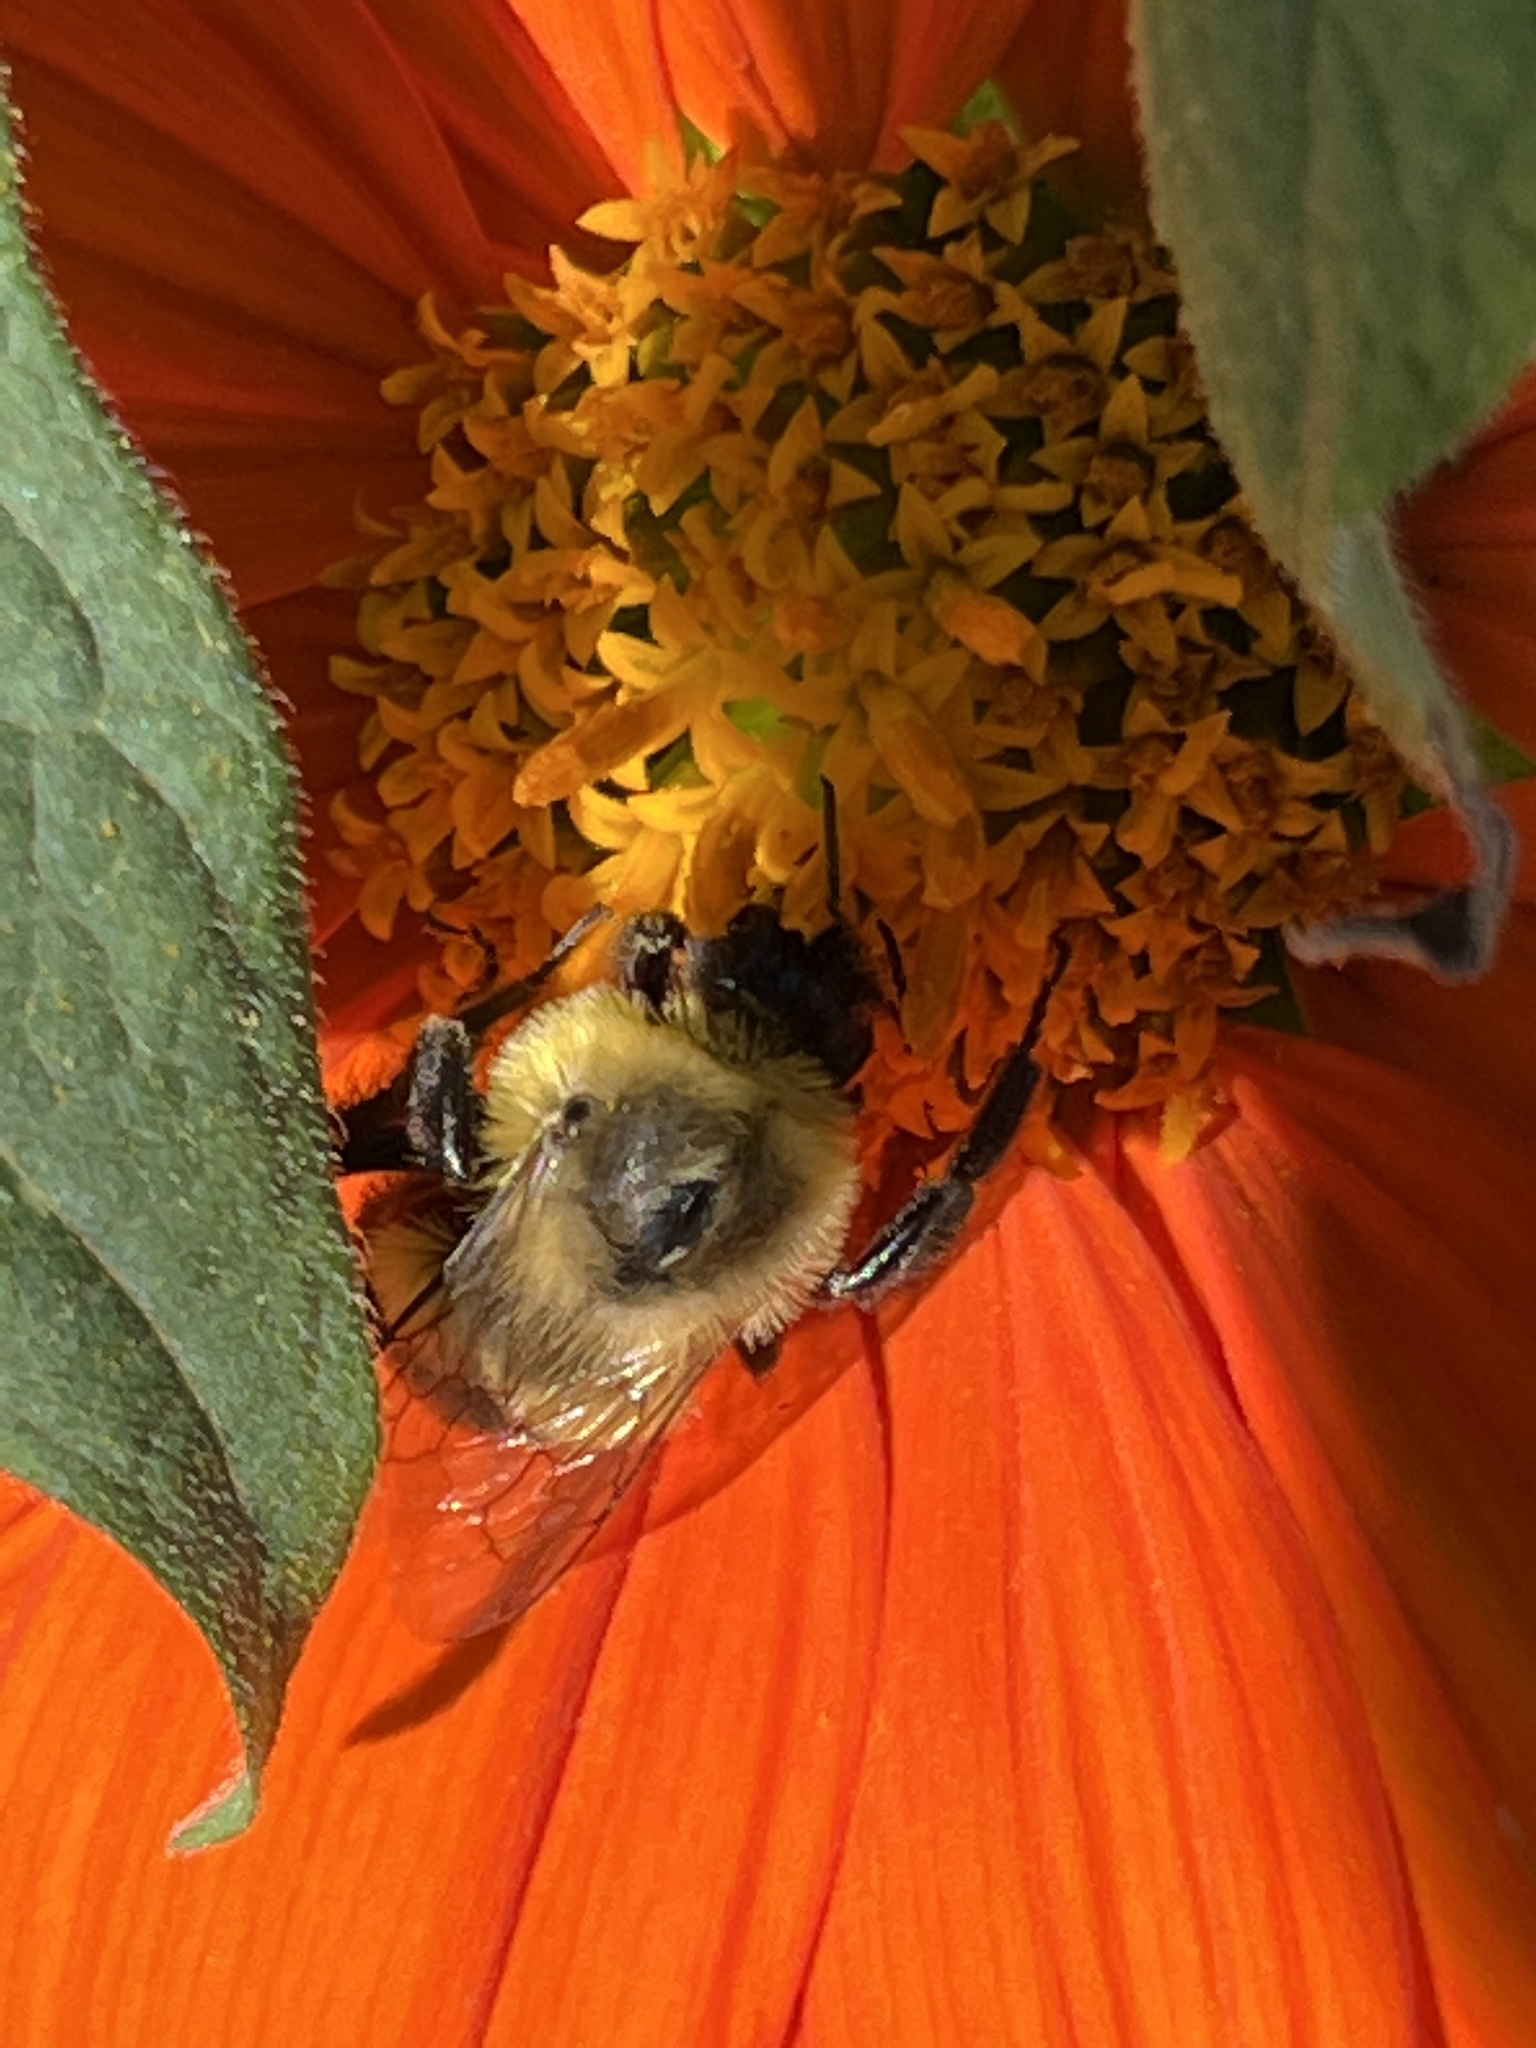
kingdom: Animalia
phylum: Arthropoda
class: Insecta
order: Hymenoptera
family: Apidae
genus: Bombus
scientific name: Bombus impatiens
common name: Common eastern bumble bee
